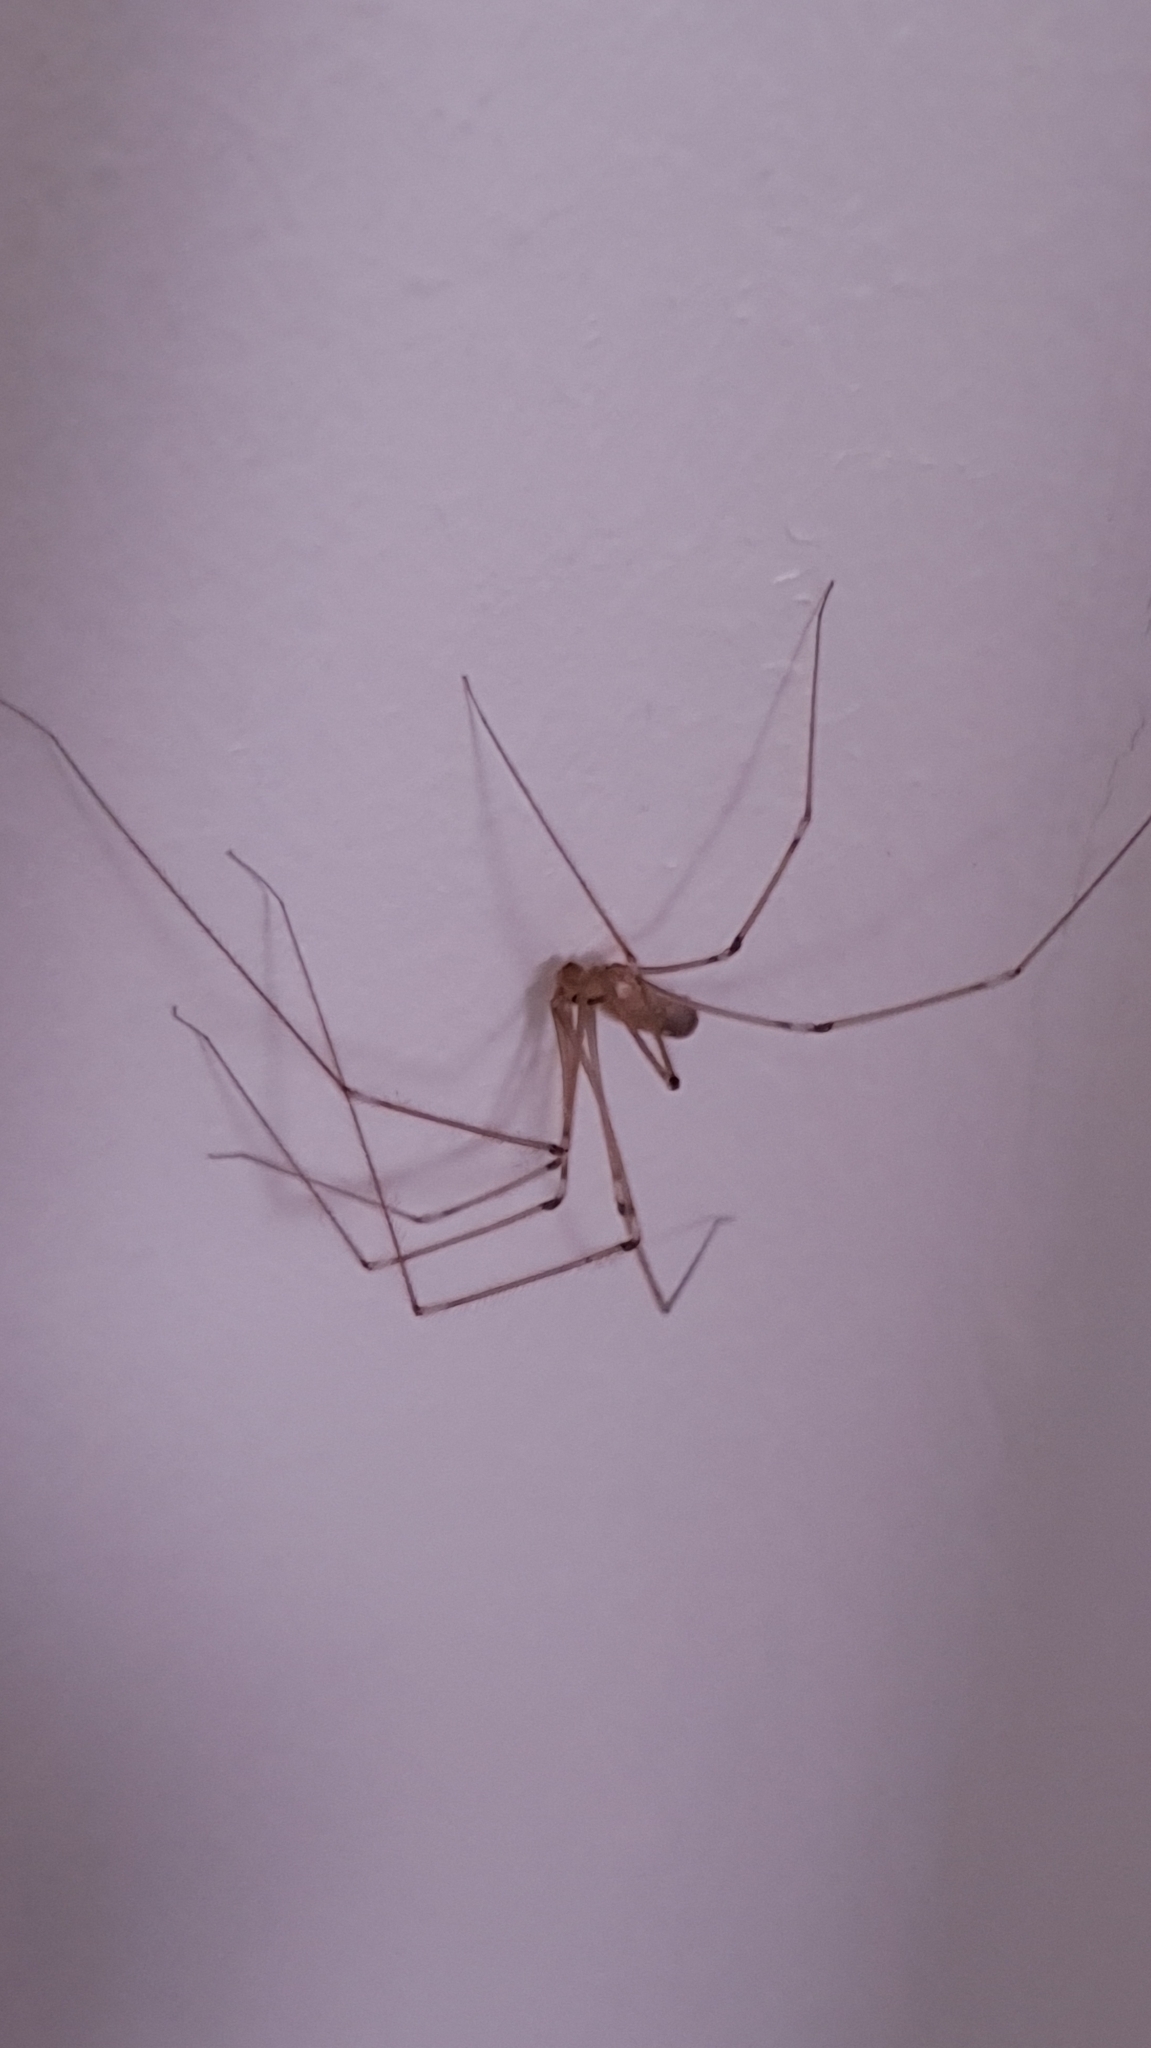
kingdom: Animalia
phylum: Arthropoda
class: Arachnida
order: Araneae
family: Pholcidae
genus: Pholcus
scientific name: Pholcus phalangioides
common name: Longbodied cellar spider
